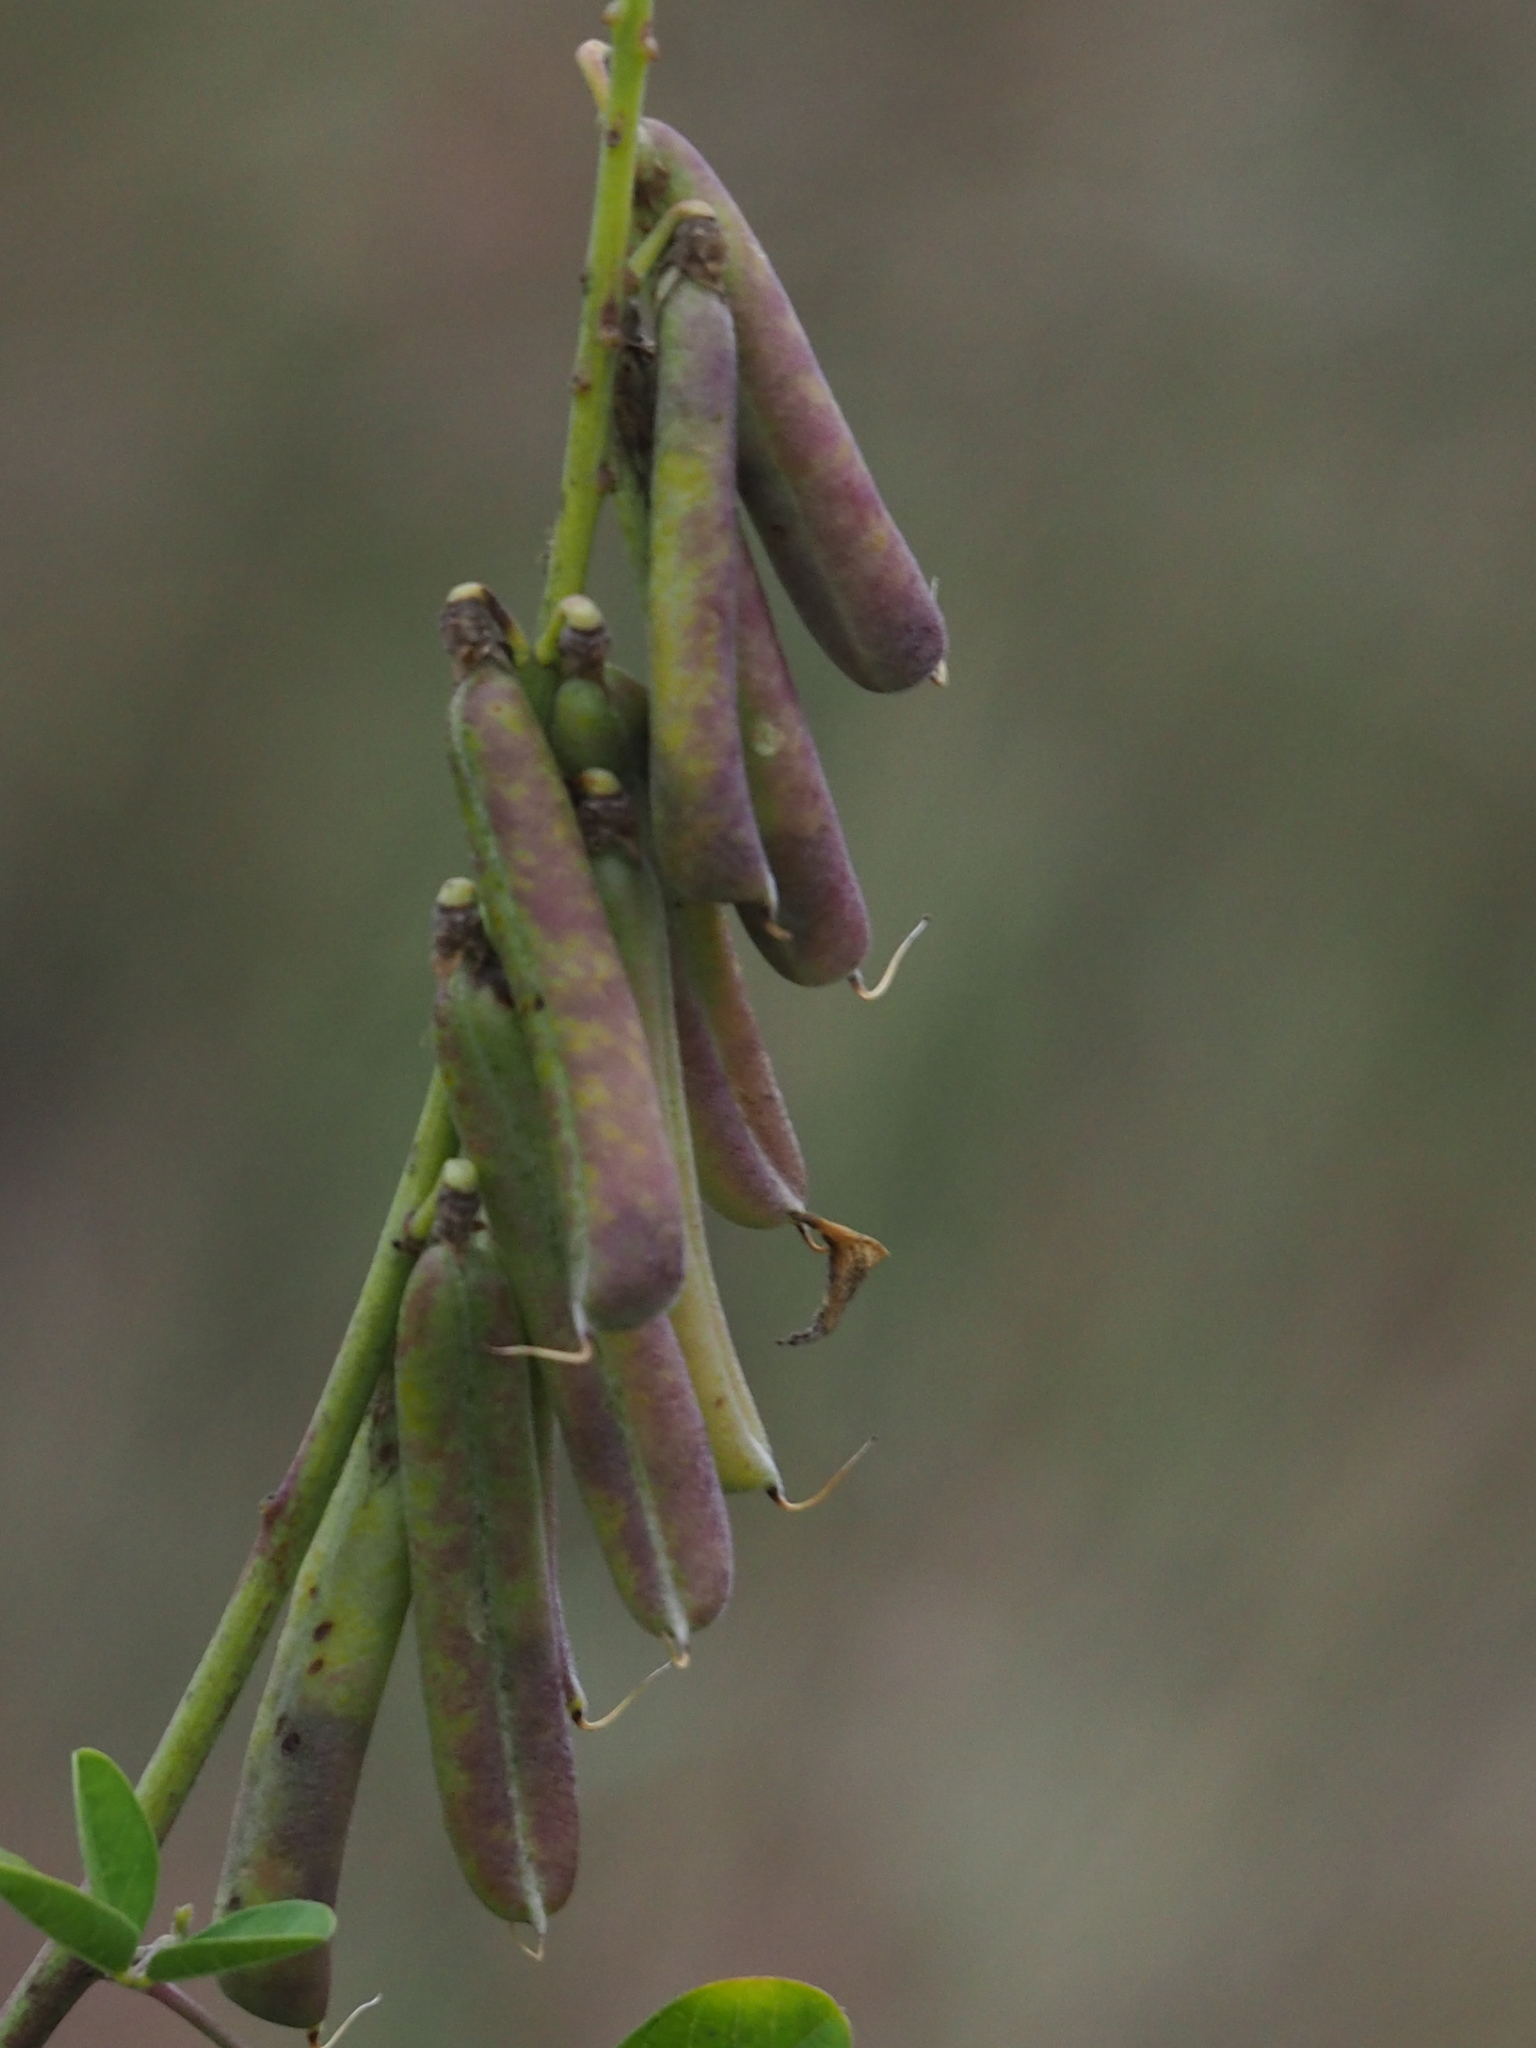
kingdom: Plantae
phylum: Tracheophyta
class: Magnoliopsida
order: Fabales
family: Fabaceae
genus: Crotalaria
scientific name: Crotalaria pallida
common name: Smooth rattlebox
